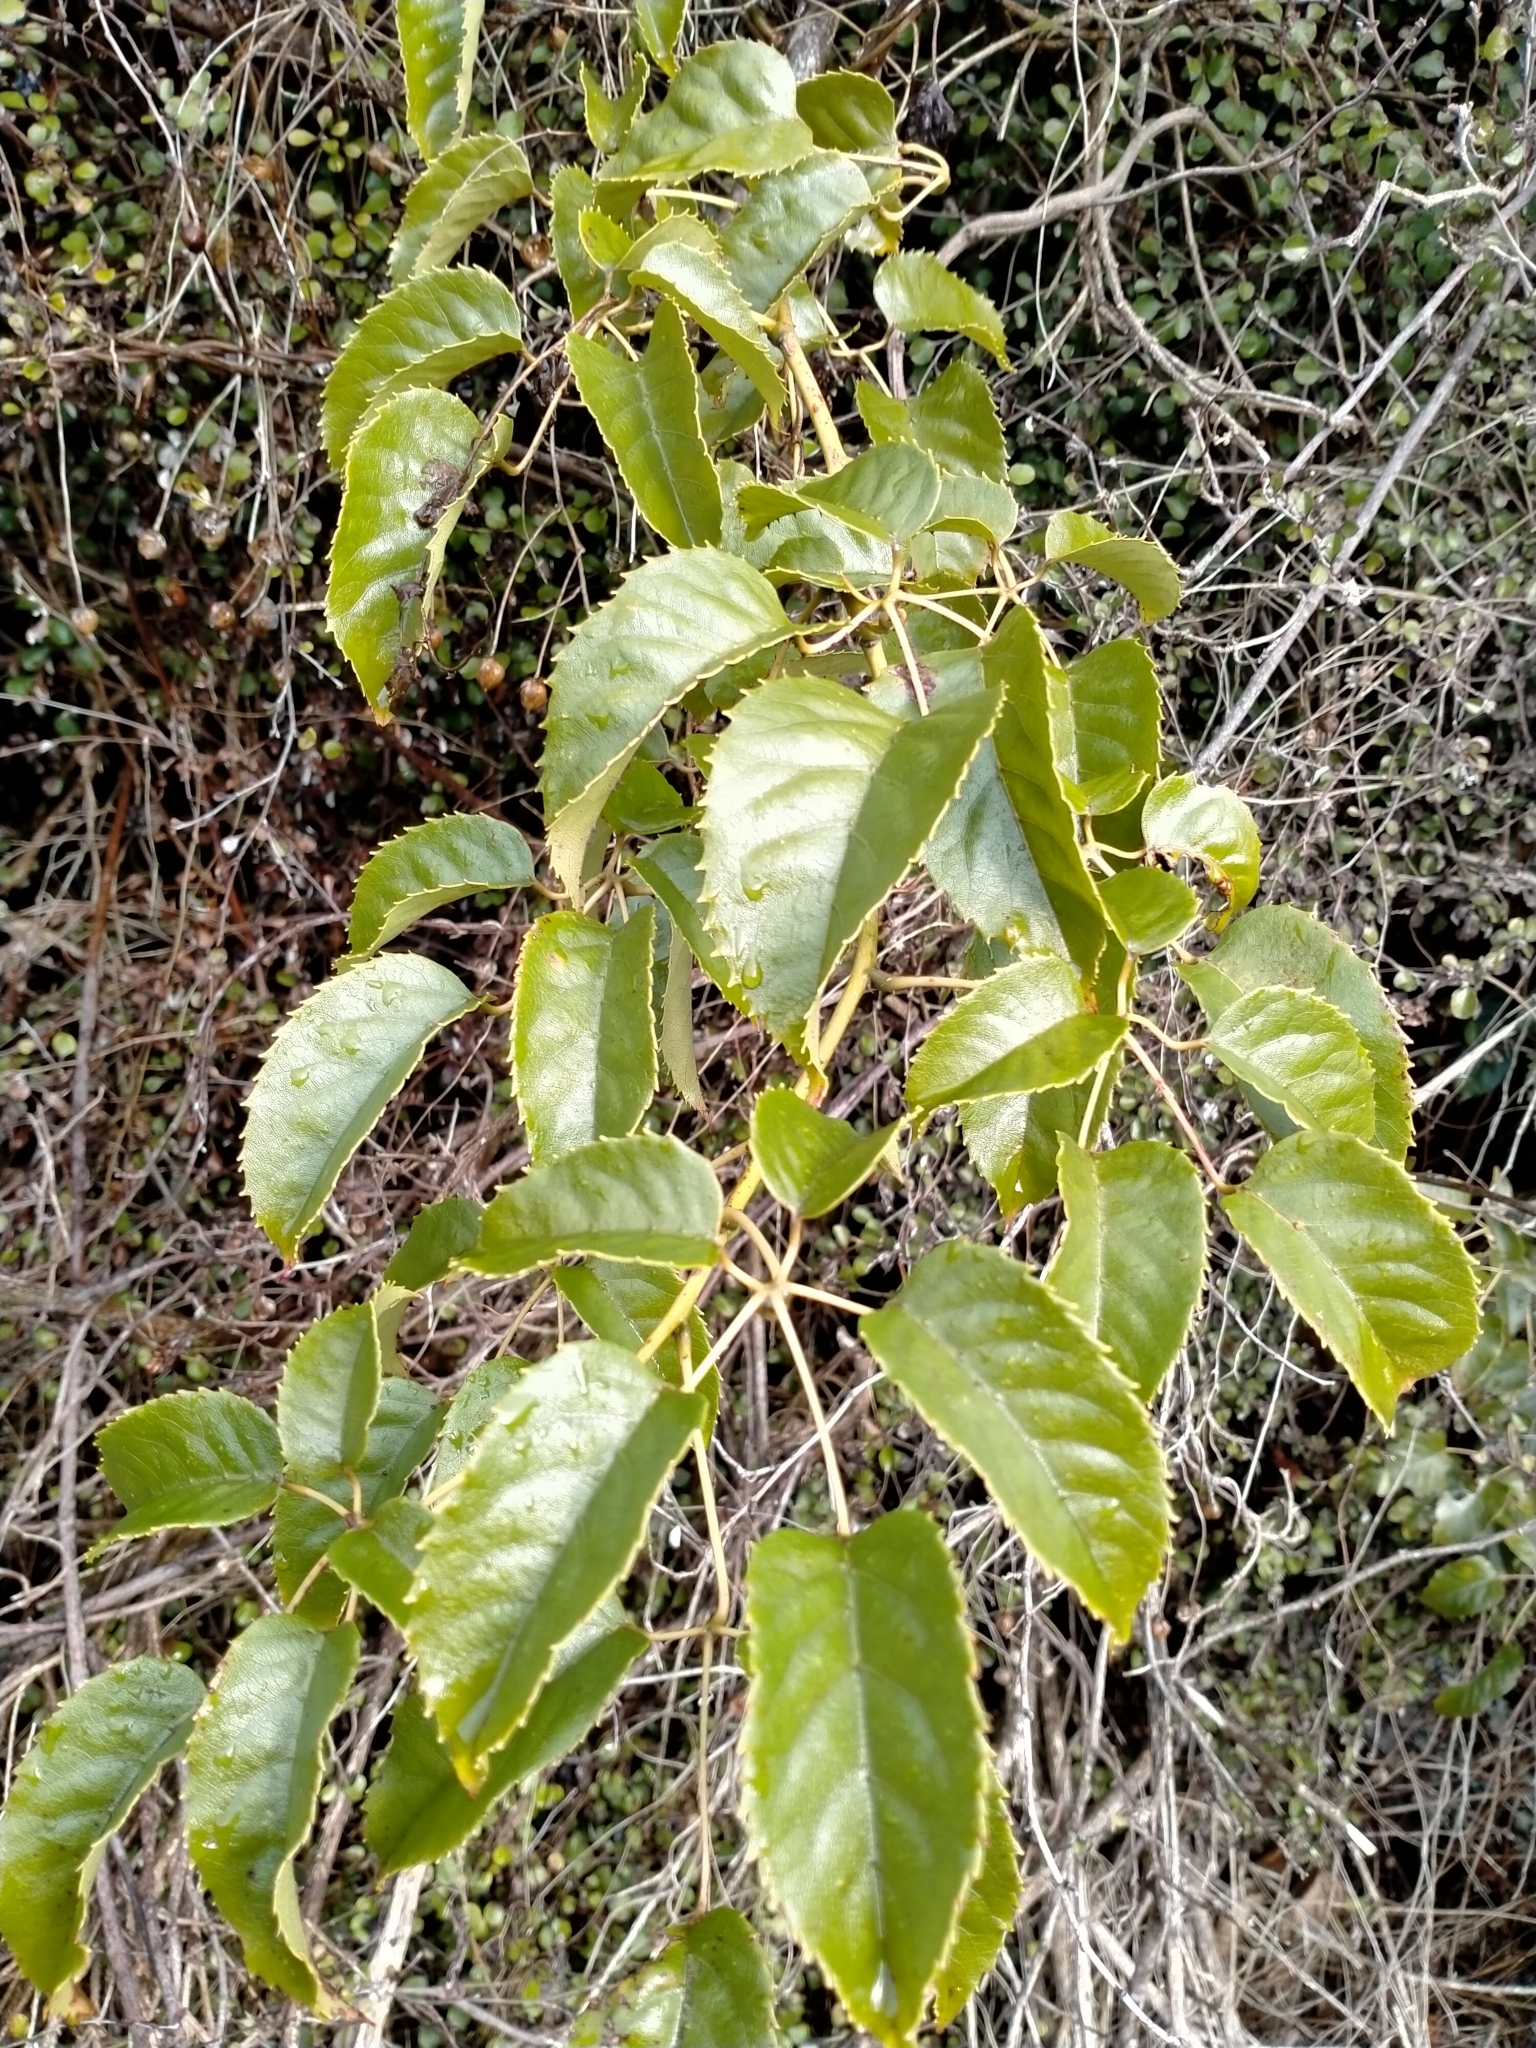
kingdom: Plantae
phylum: Tracheophyta
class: Magnoliopsida
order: Rosales
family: Rosaceae
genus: Rubus
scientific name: Rubus cissoides
